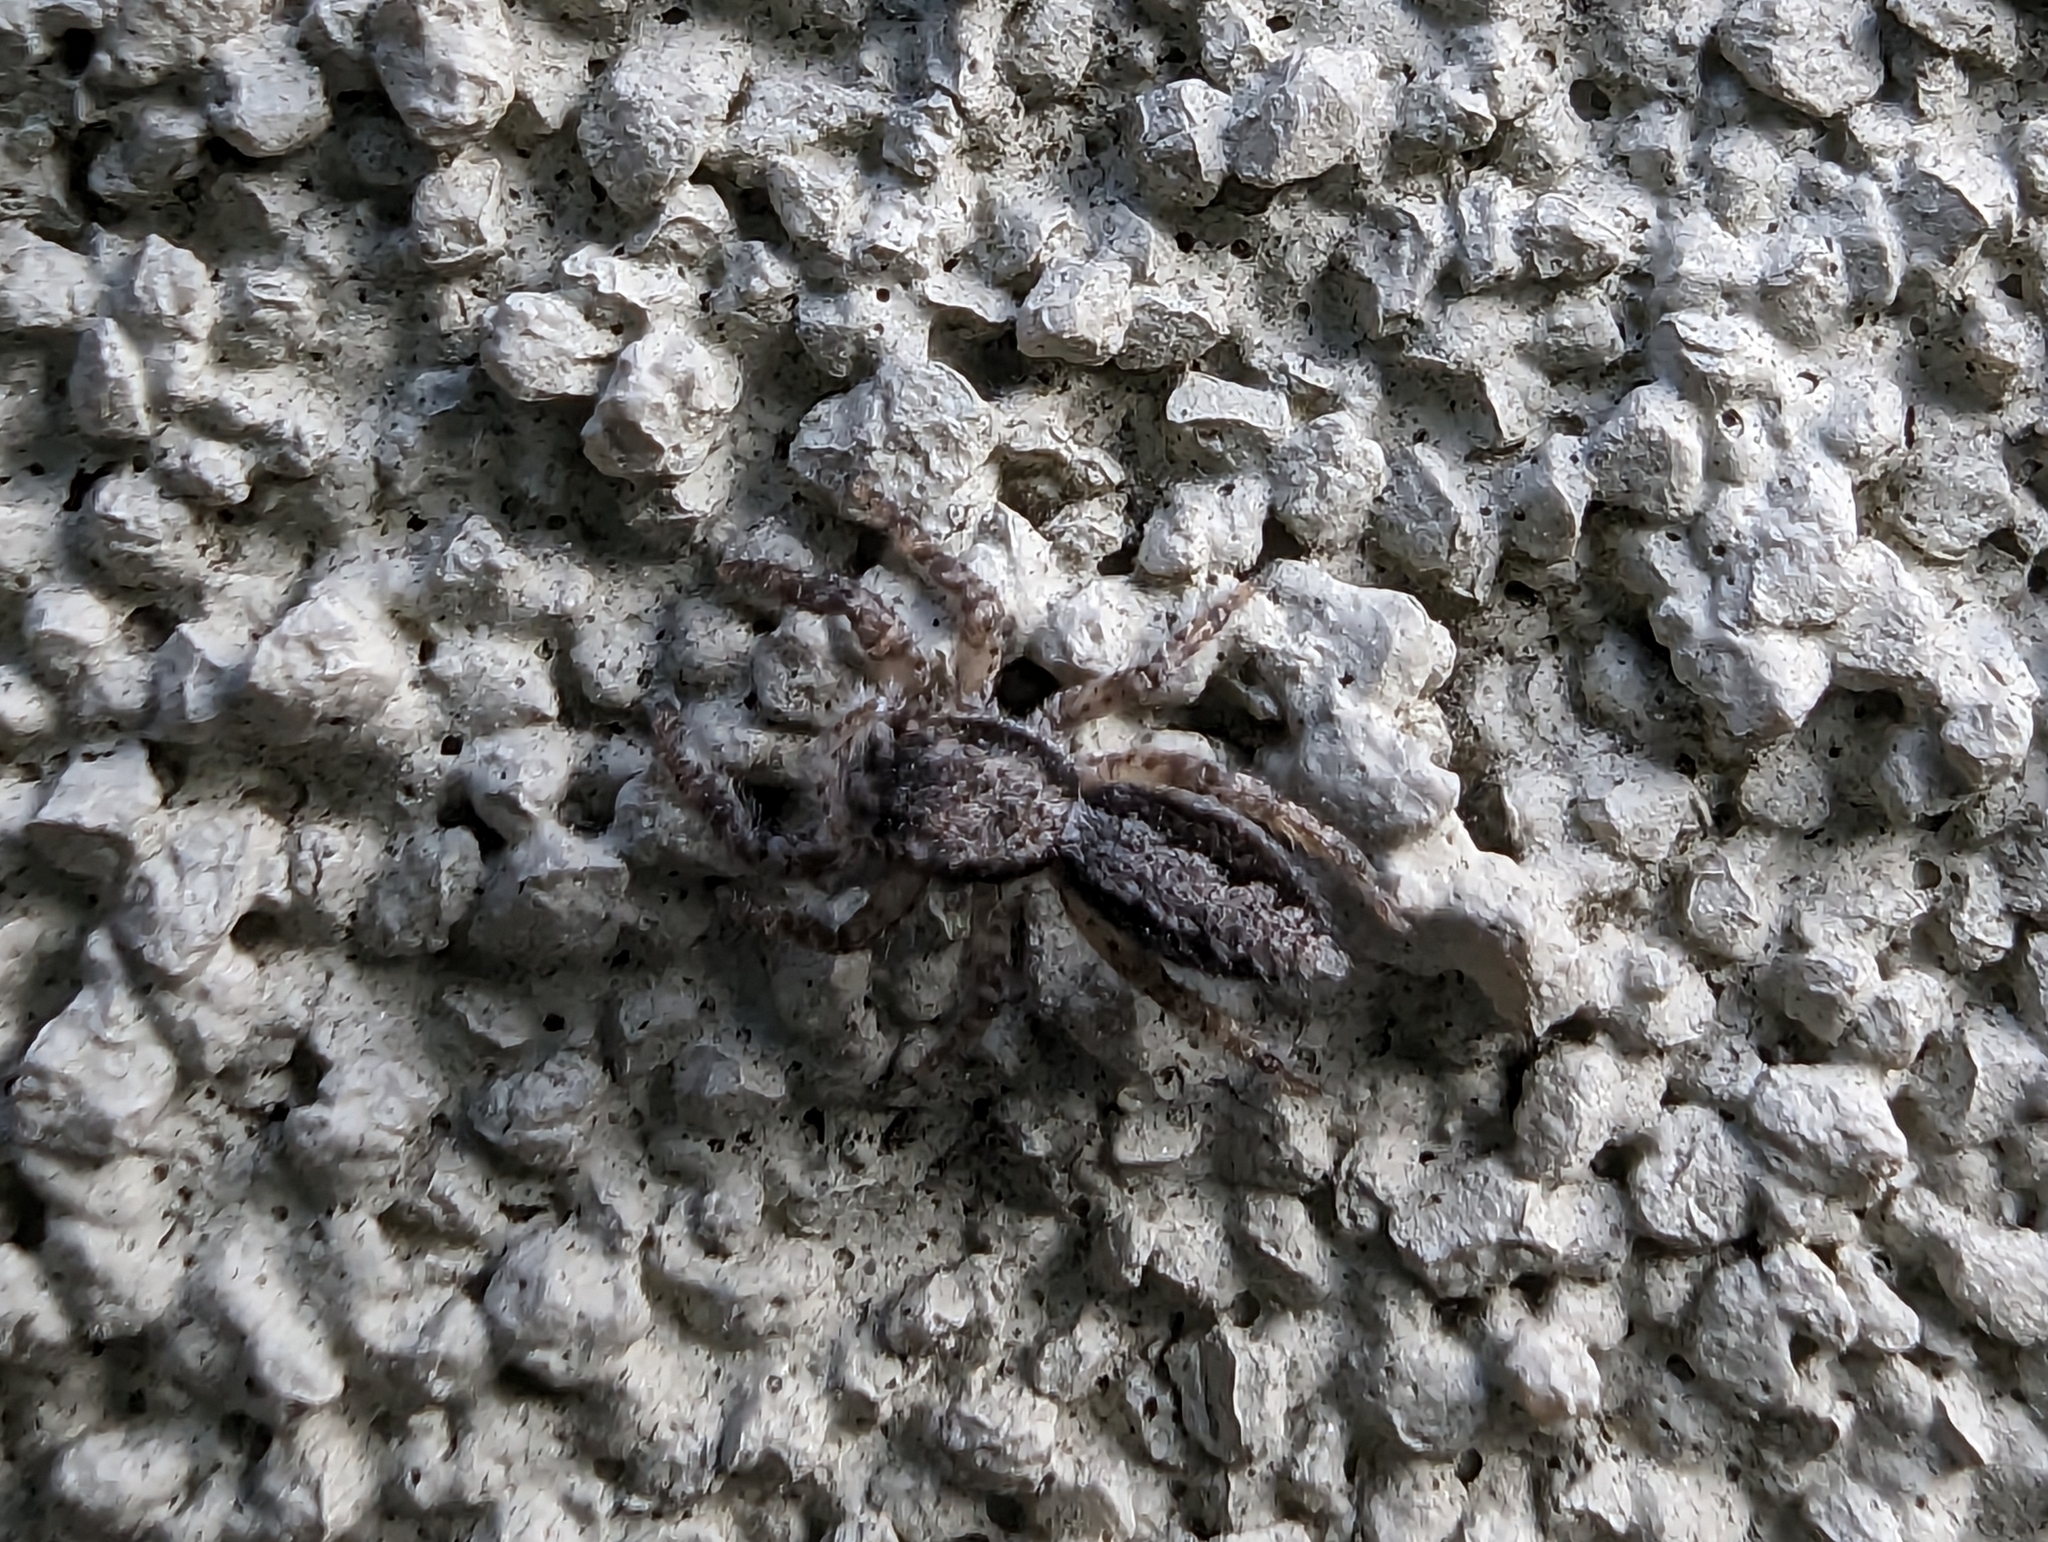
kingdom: Animalia
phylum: Arthropoda
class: Arachnida
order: Araneae
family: Salticidae
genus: Platycryptus
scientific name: Platycryptus californicus
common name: Jumping spiders
